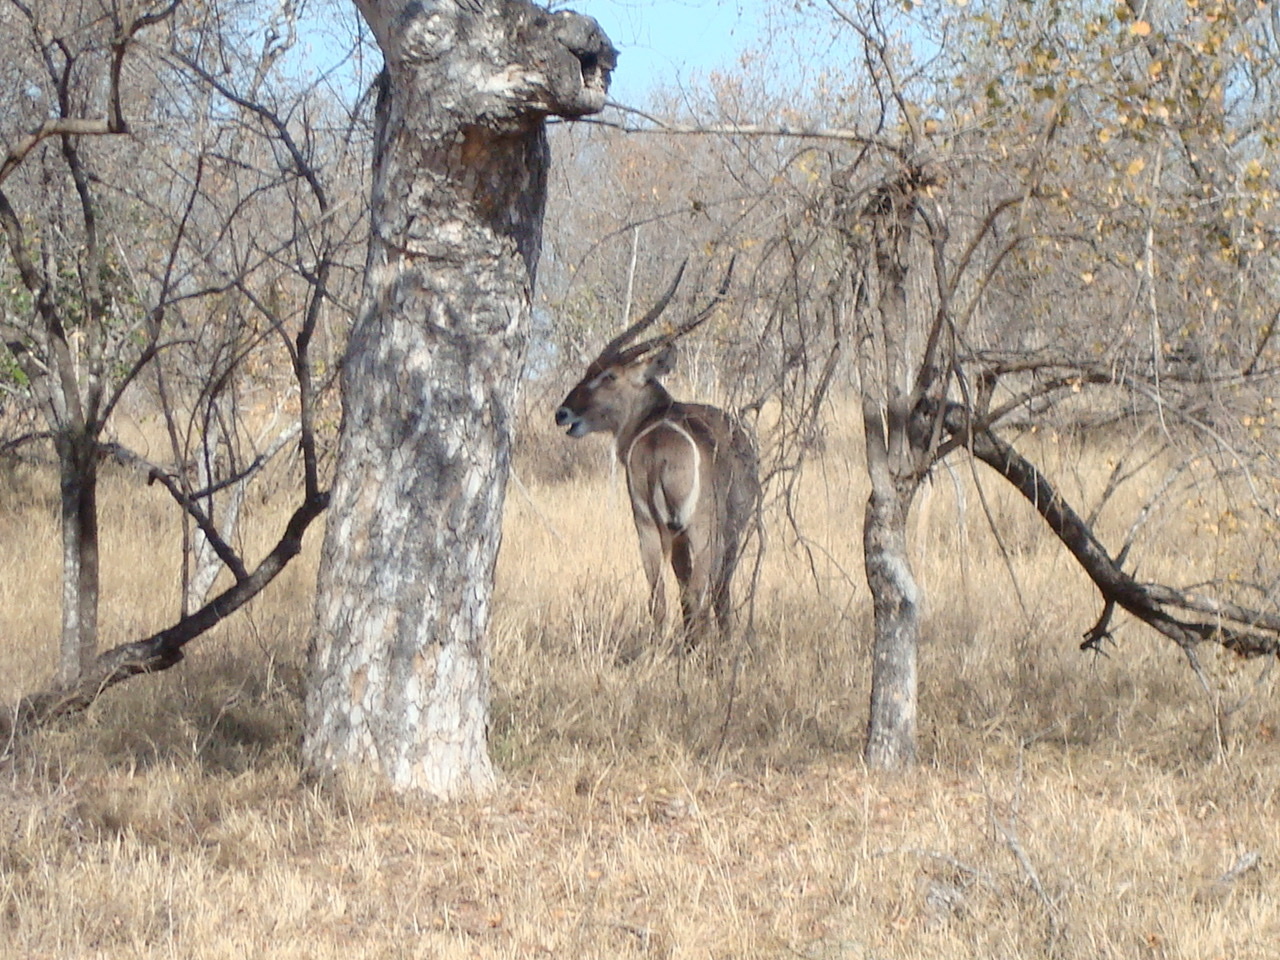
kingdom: Animalia
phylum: Chordata
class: Mammalia
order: Artiodactyla
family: Bovidae
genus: Kobus
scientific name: Kobus ellipsiprymnus
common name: Waterbuck
